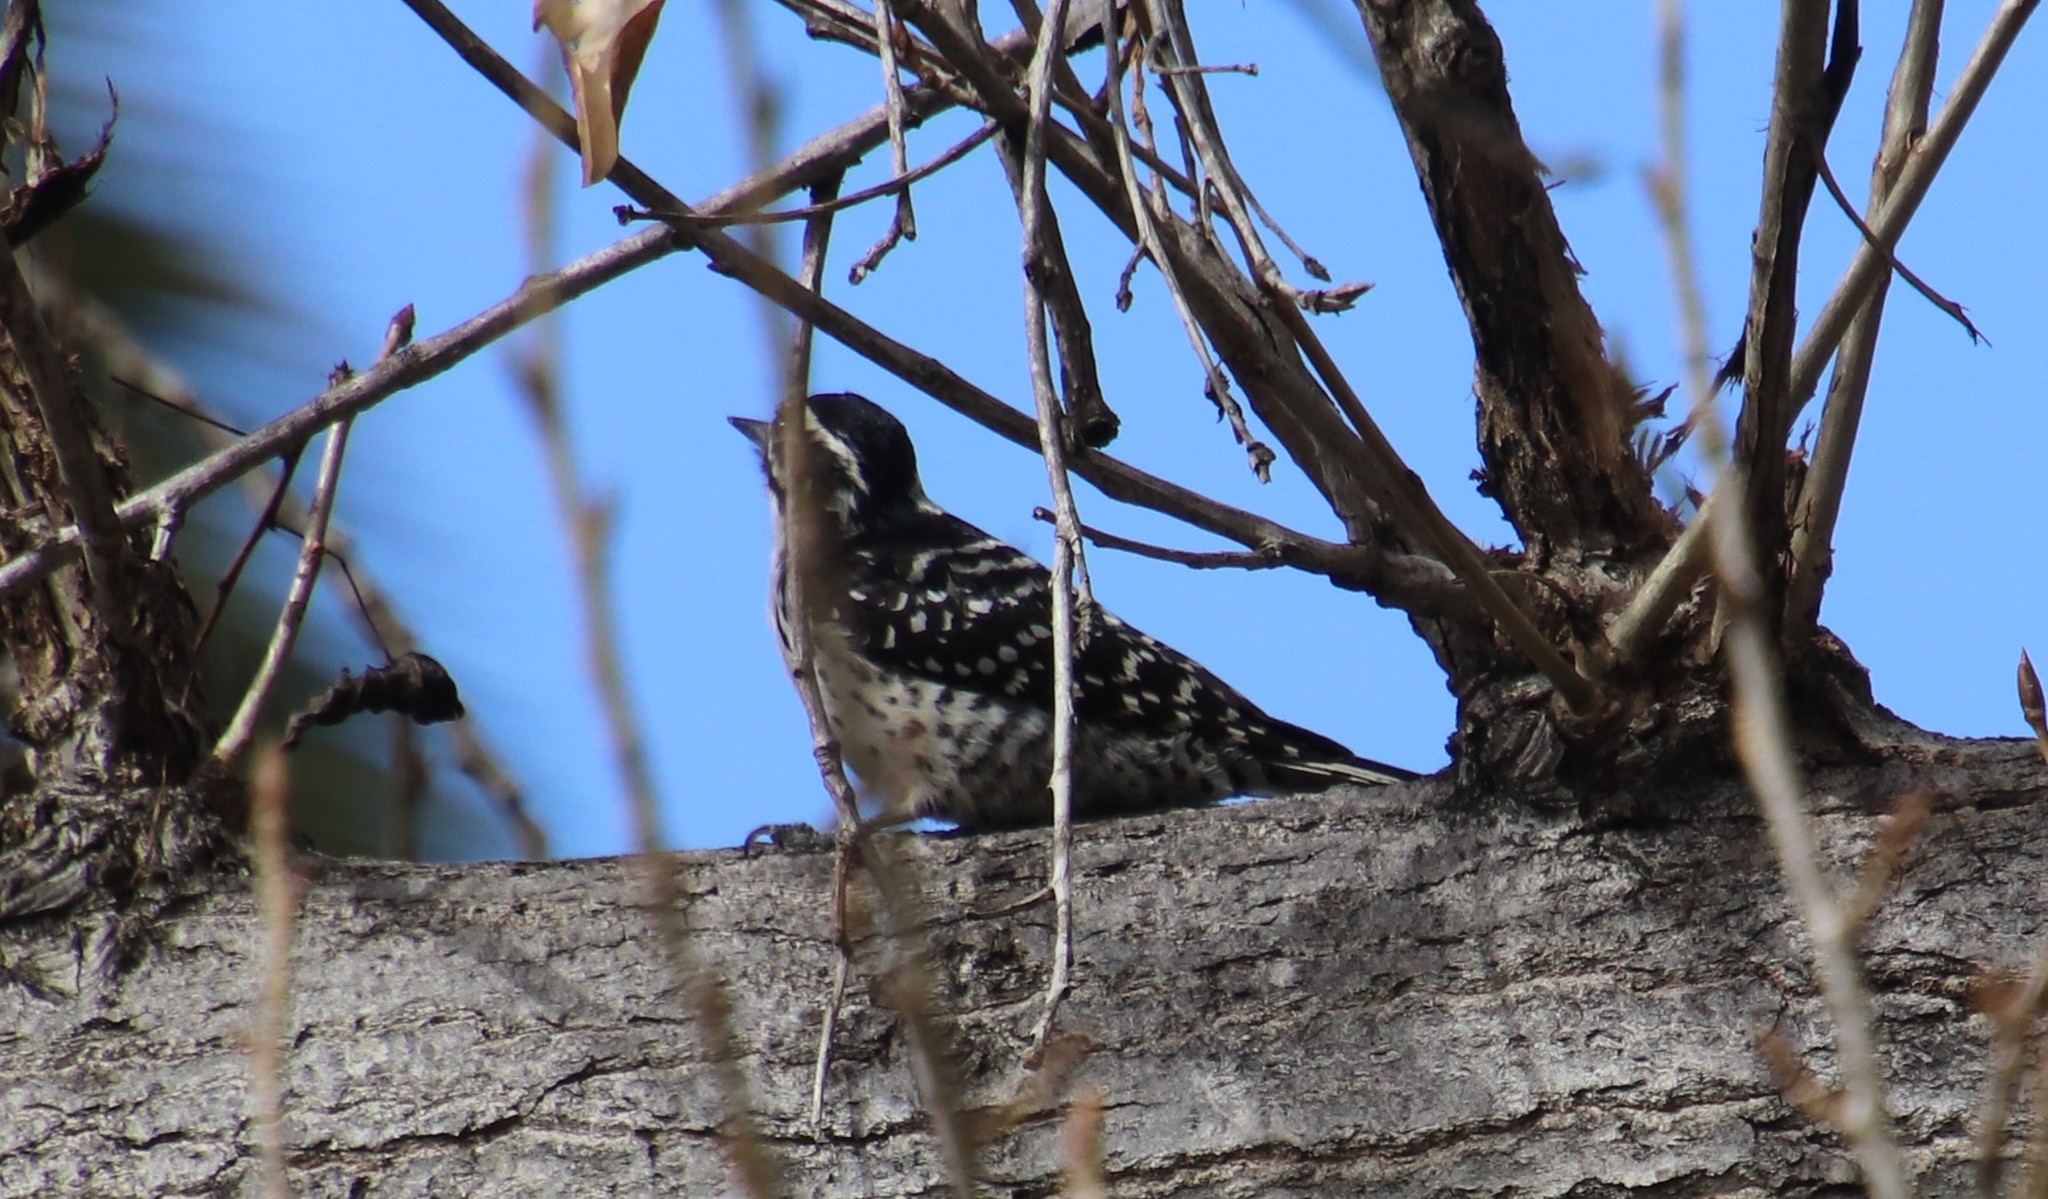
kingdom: Animalia
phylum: Chordata
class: Aves
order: Piciformes
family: Picidae
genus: Dryobates
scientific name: Dryobates nuttallii
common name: Nuttall's woodpecker
